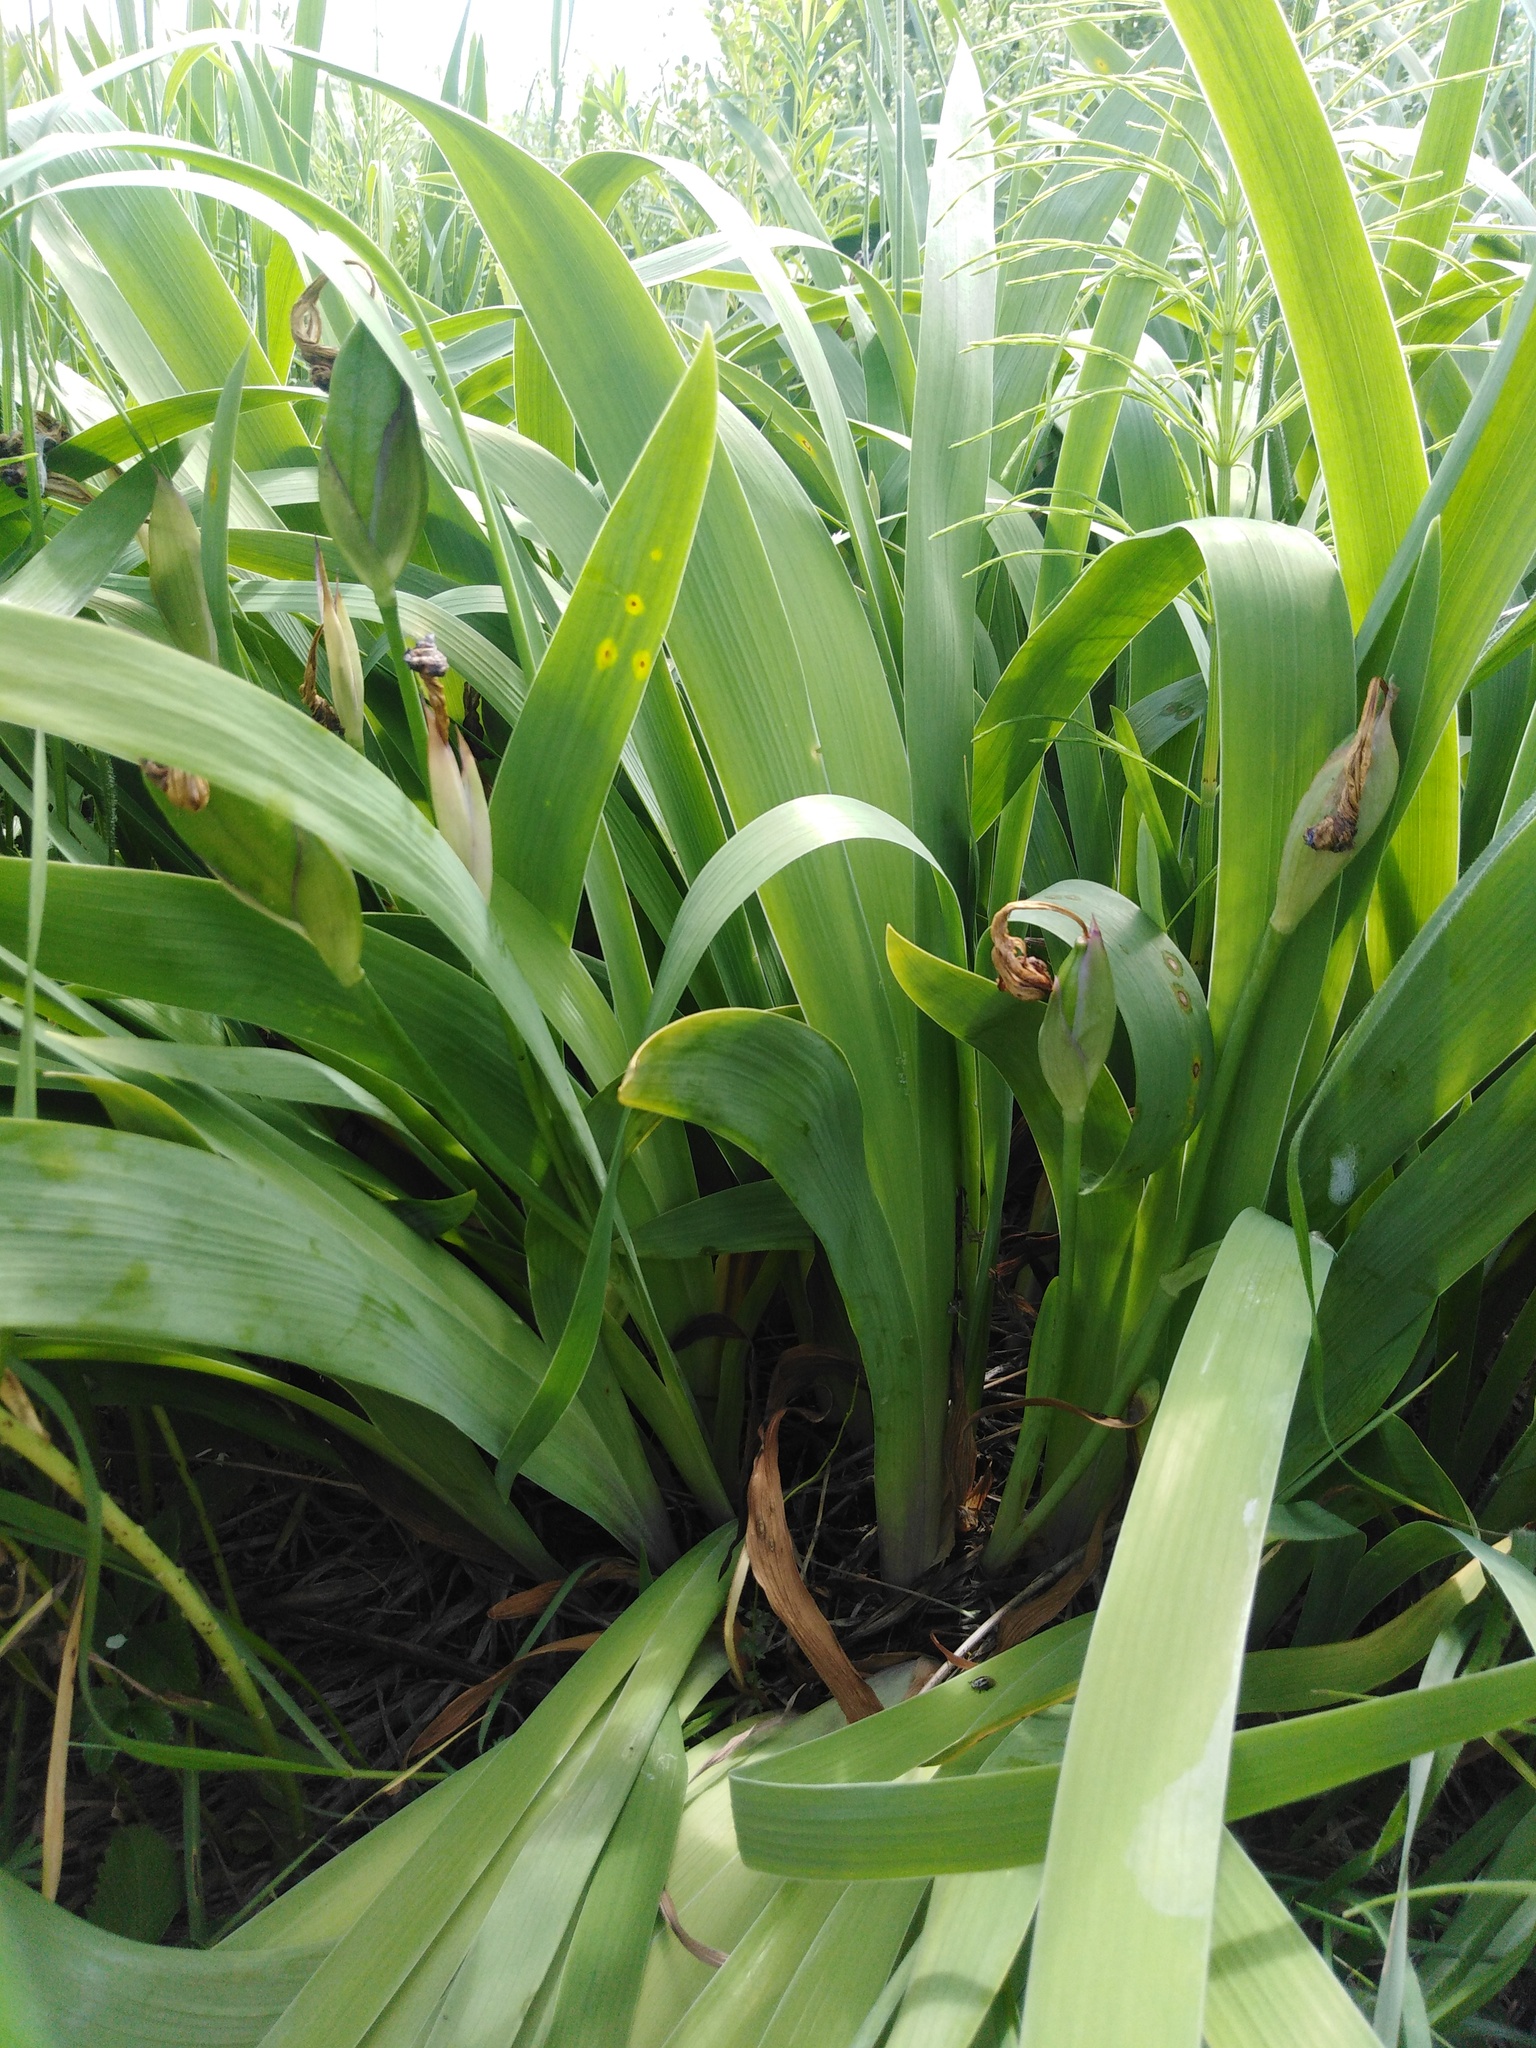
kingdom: Plantae
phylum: Tracheophyta
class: Liliopsida
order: Asparagales
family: Iridaceae
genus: Iris
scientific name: Iris aphylla
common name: Stool iris
